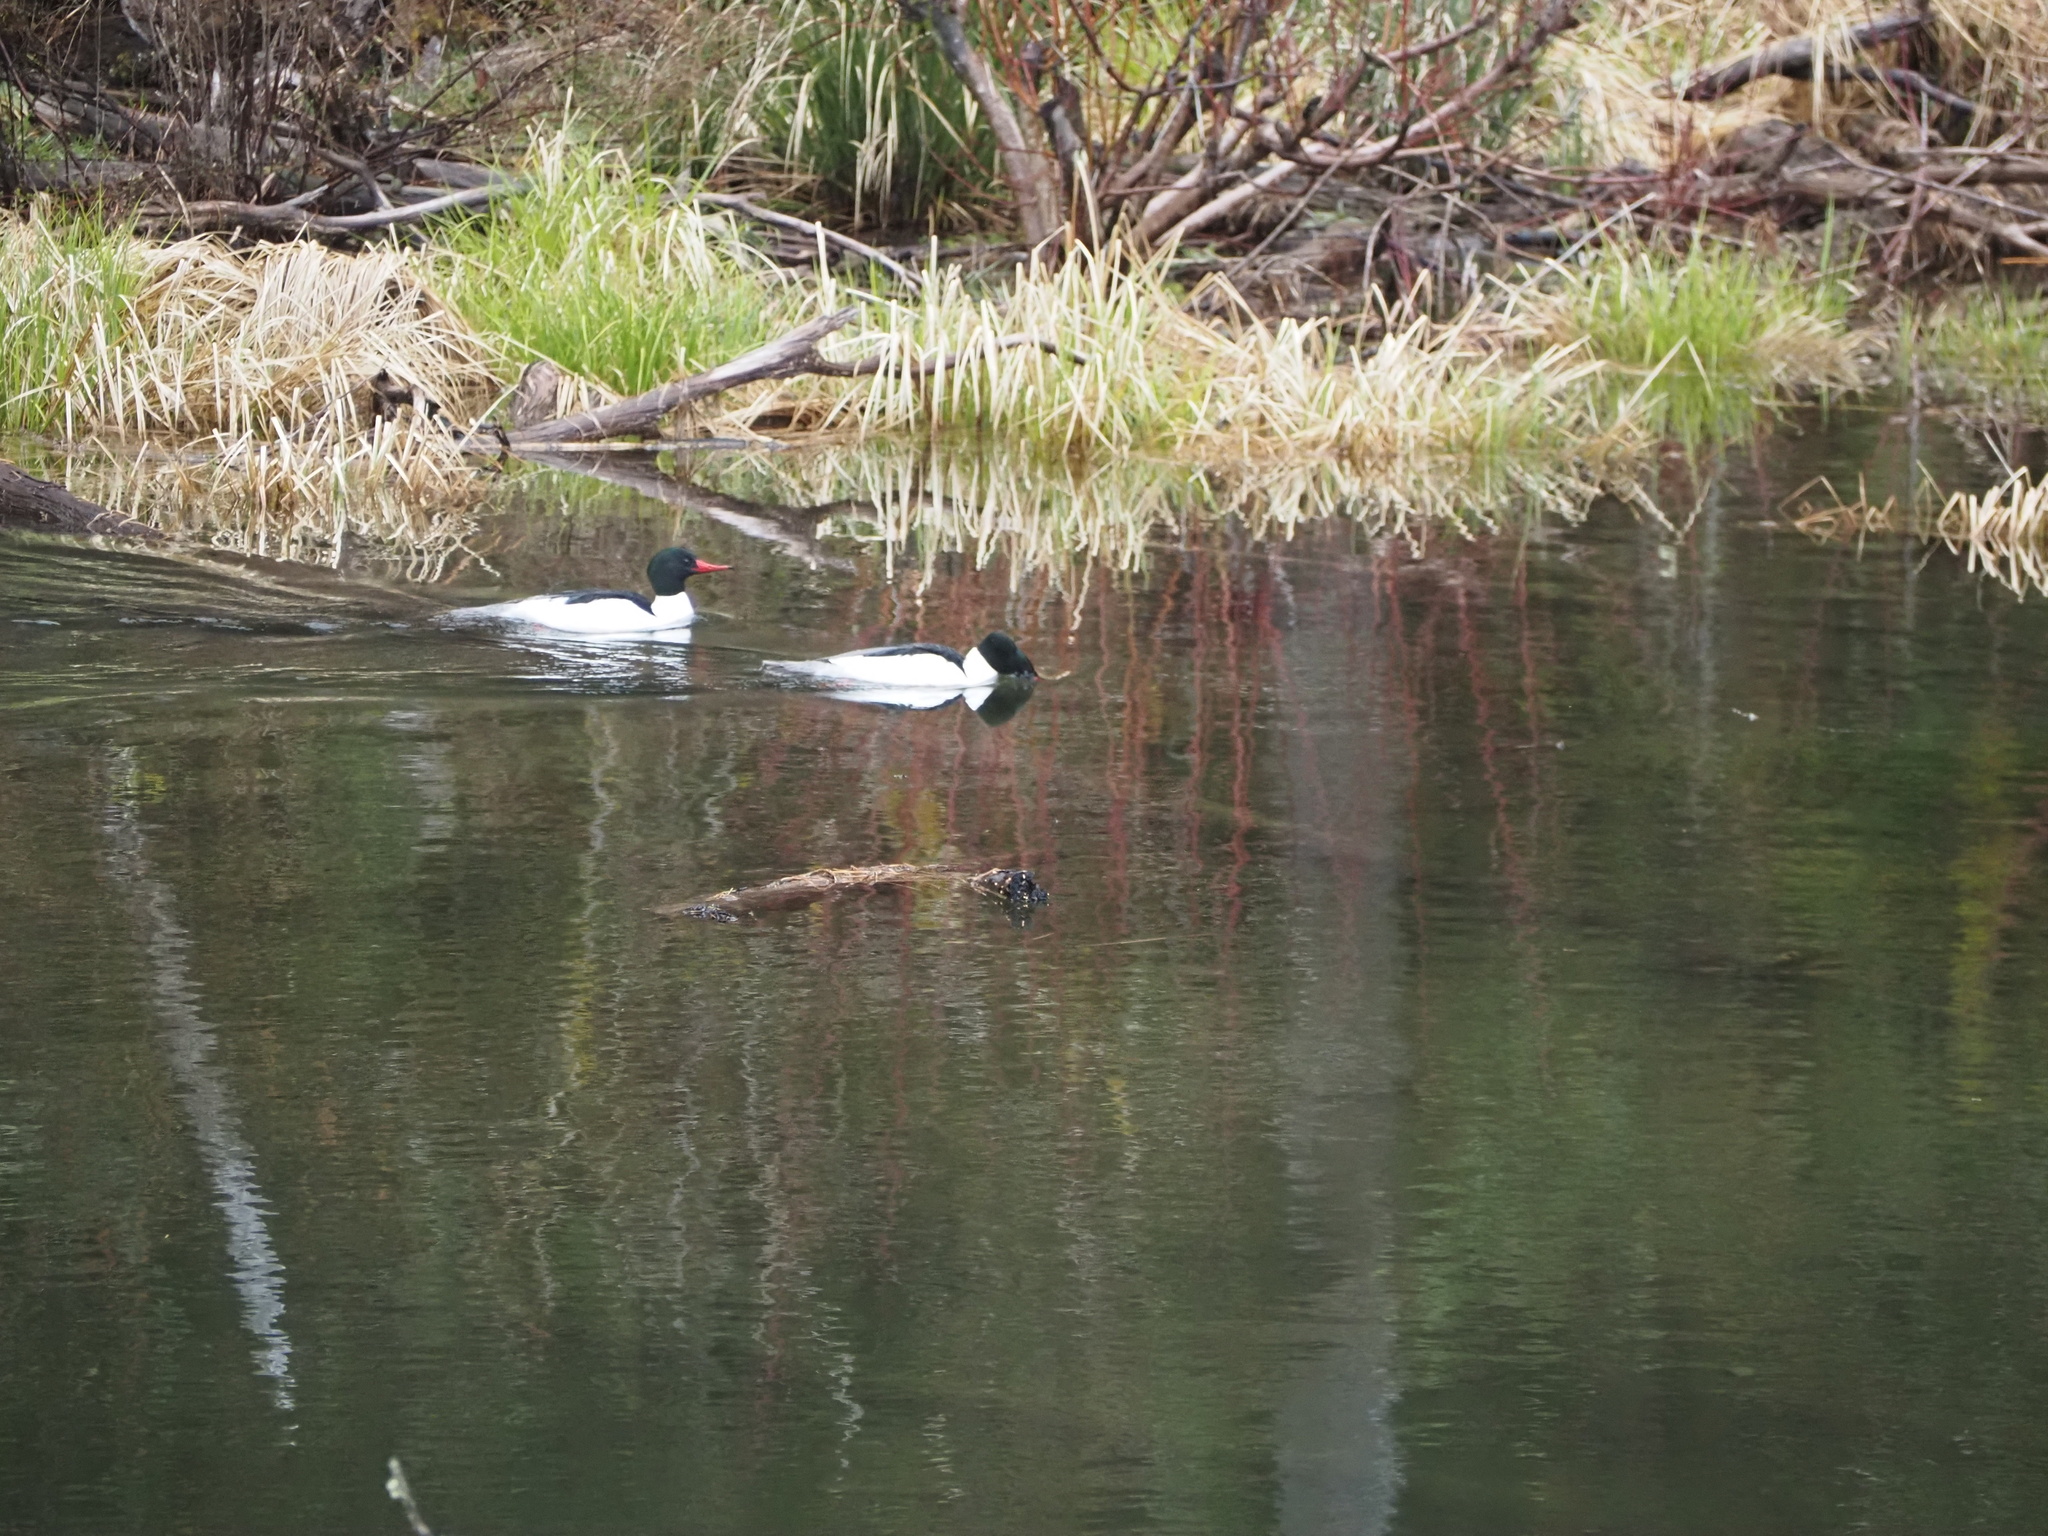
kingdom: Animalia
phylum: Chordata
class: Aves
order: Anseriformes
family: Anatidae
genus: Mergus
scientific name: Mergus merganser
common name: Common merganser
